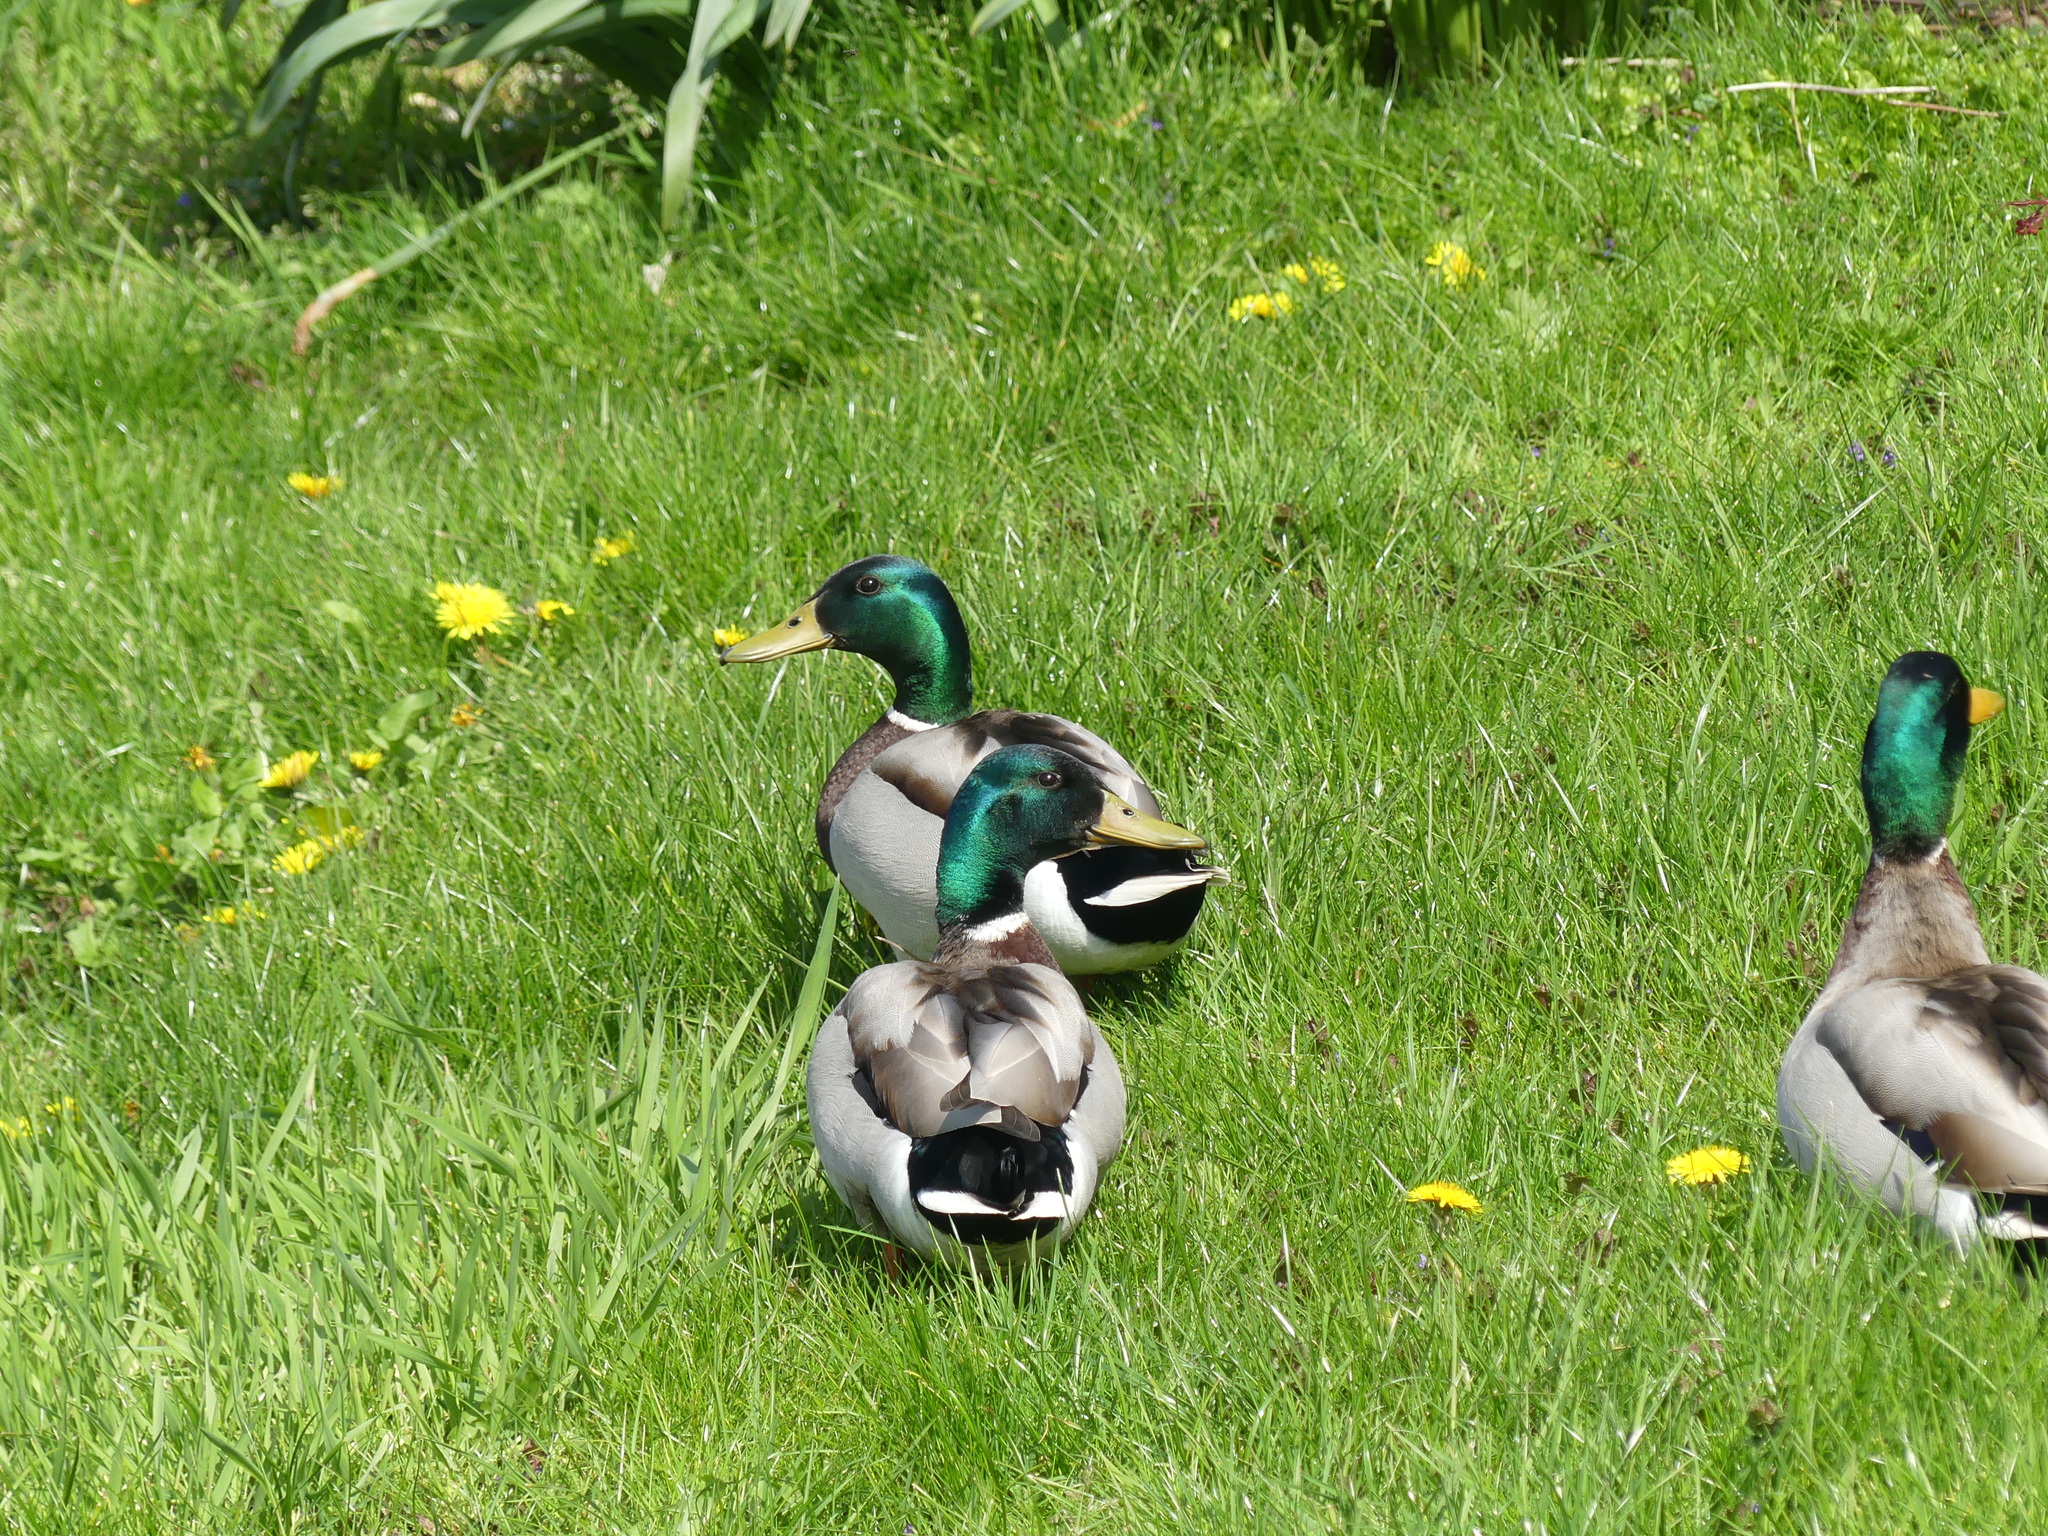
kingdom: Animalia
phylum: Chordata
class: Aves
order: Anseriformes
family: Anatidae
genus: Anas
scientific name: Anas platyrhynchos
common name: Mallard
